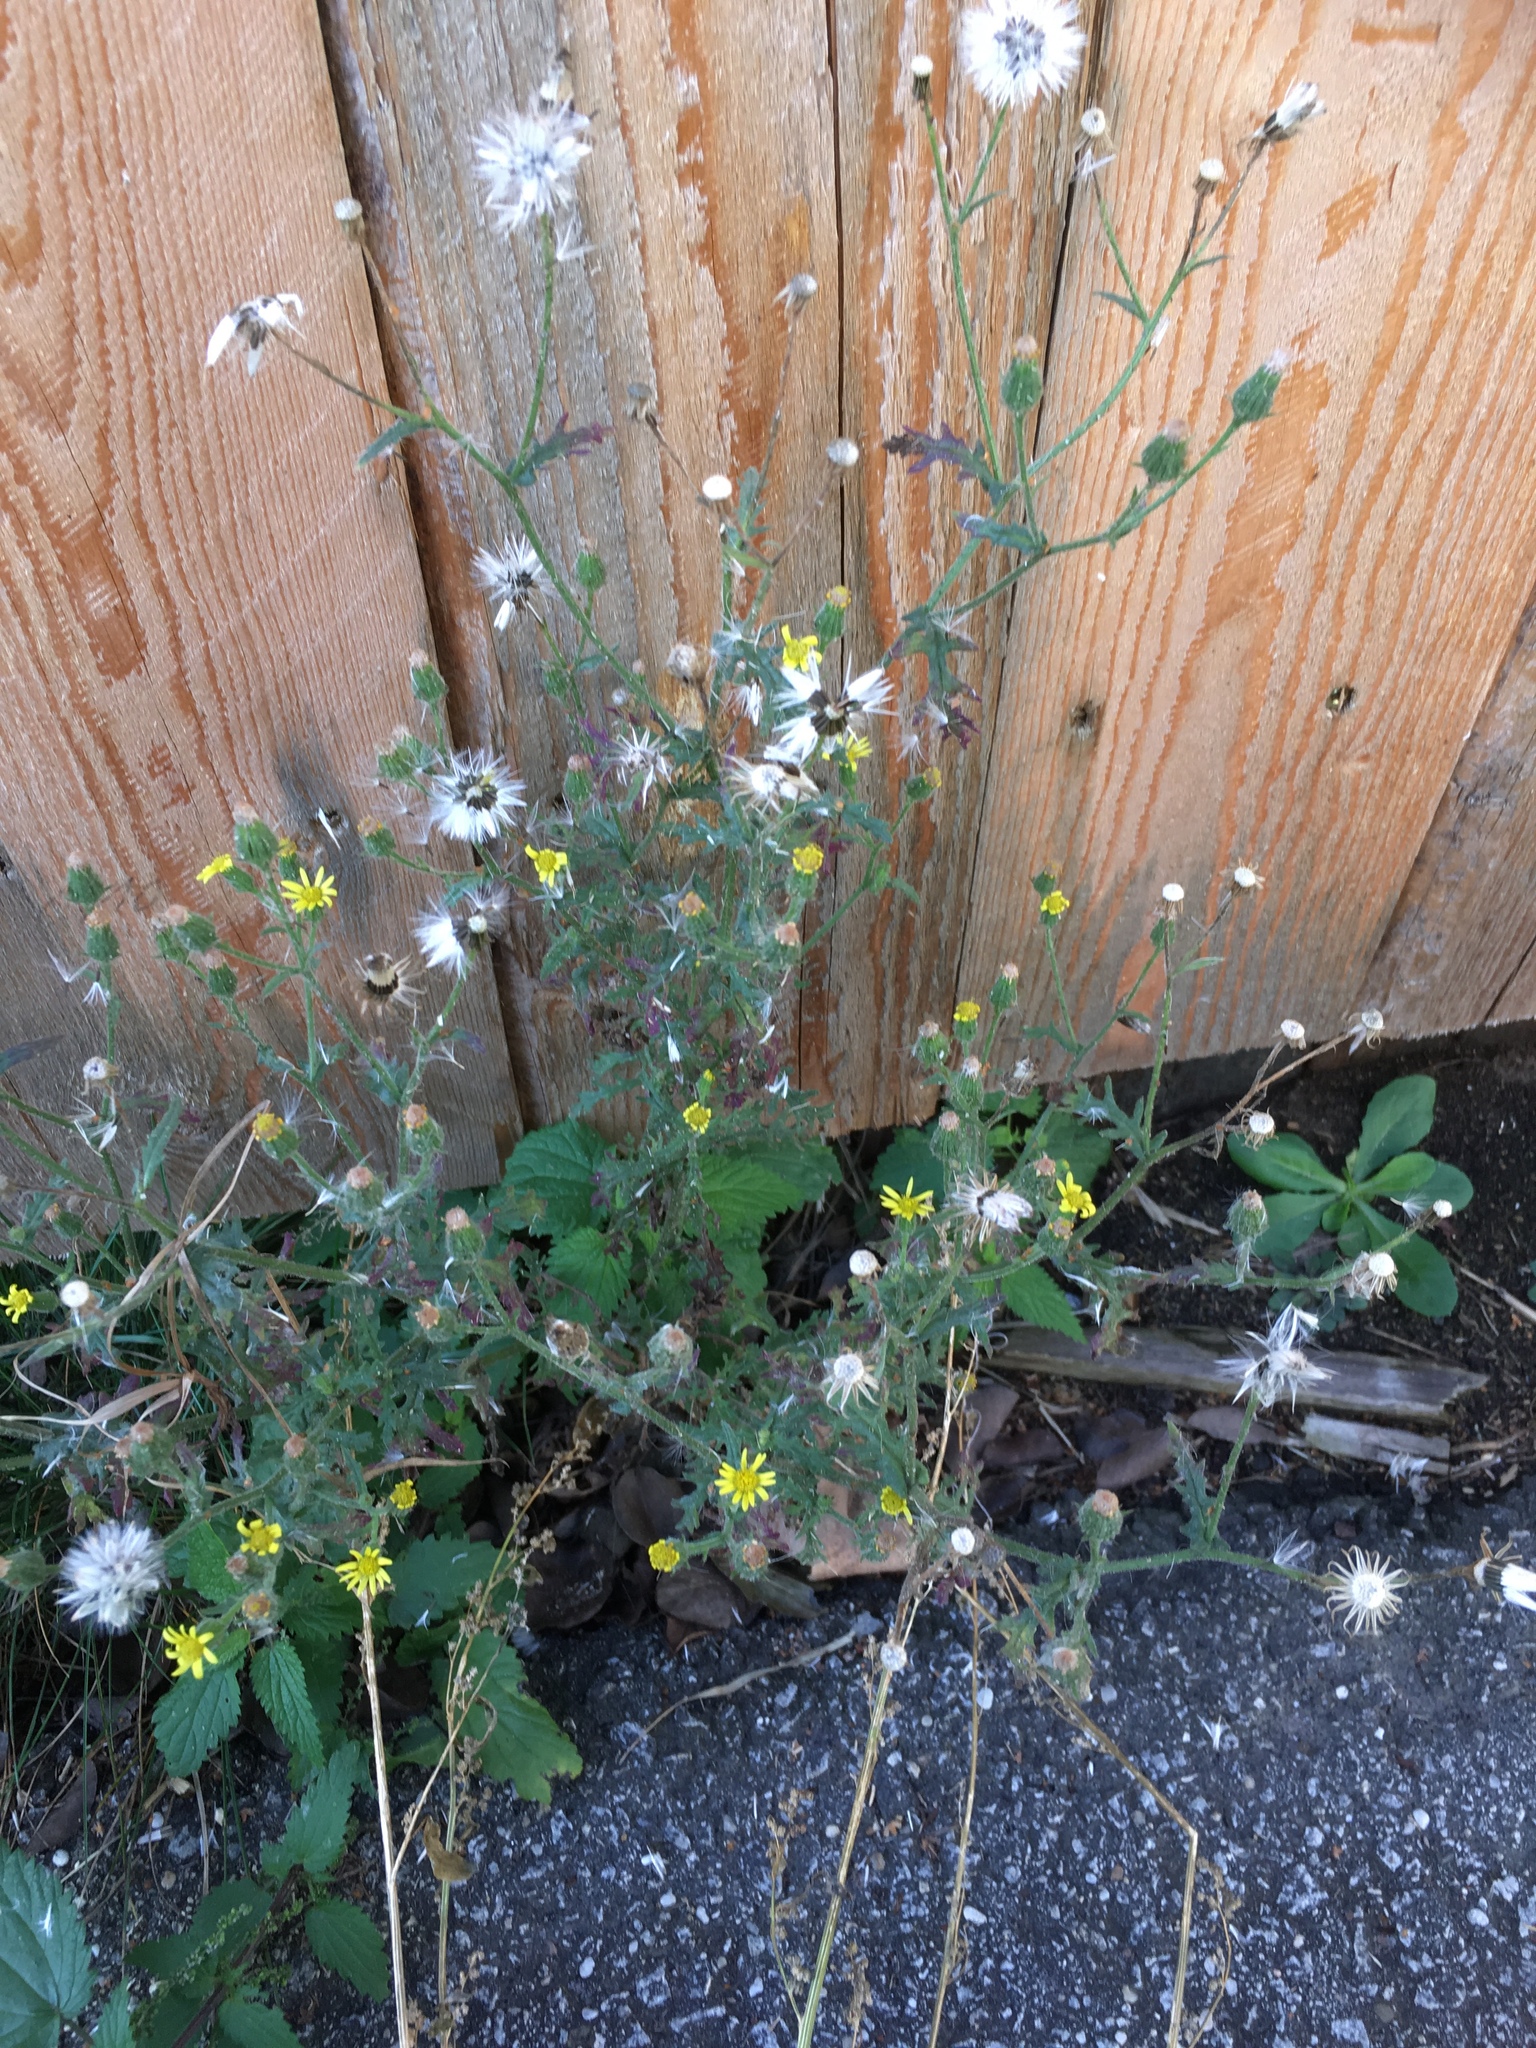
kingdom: Plantae
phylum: Tracheophyta
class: Magnoliopsida
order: Asterales
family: Asteraceae
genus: Senecio
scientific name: Senecio viscosus
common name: Sticky groundsel
